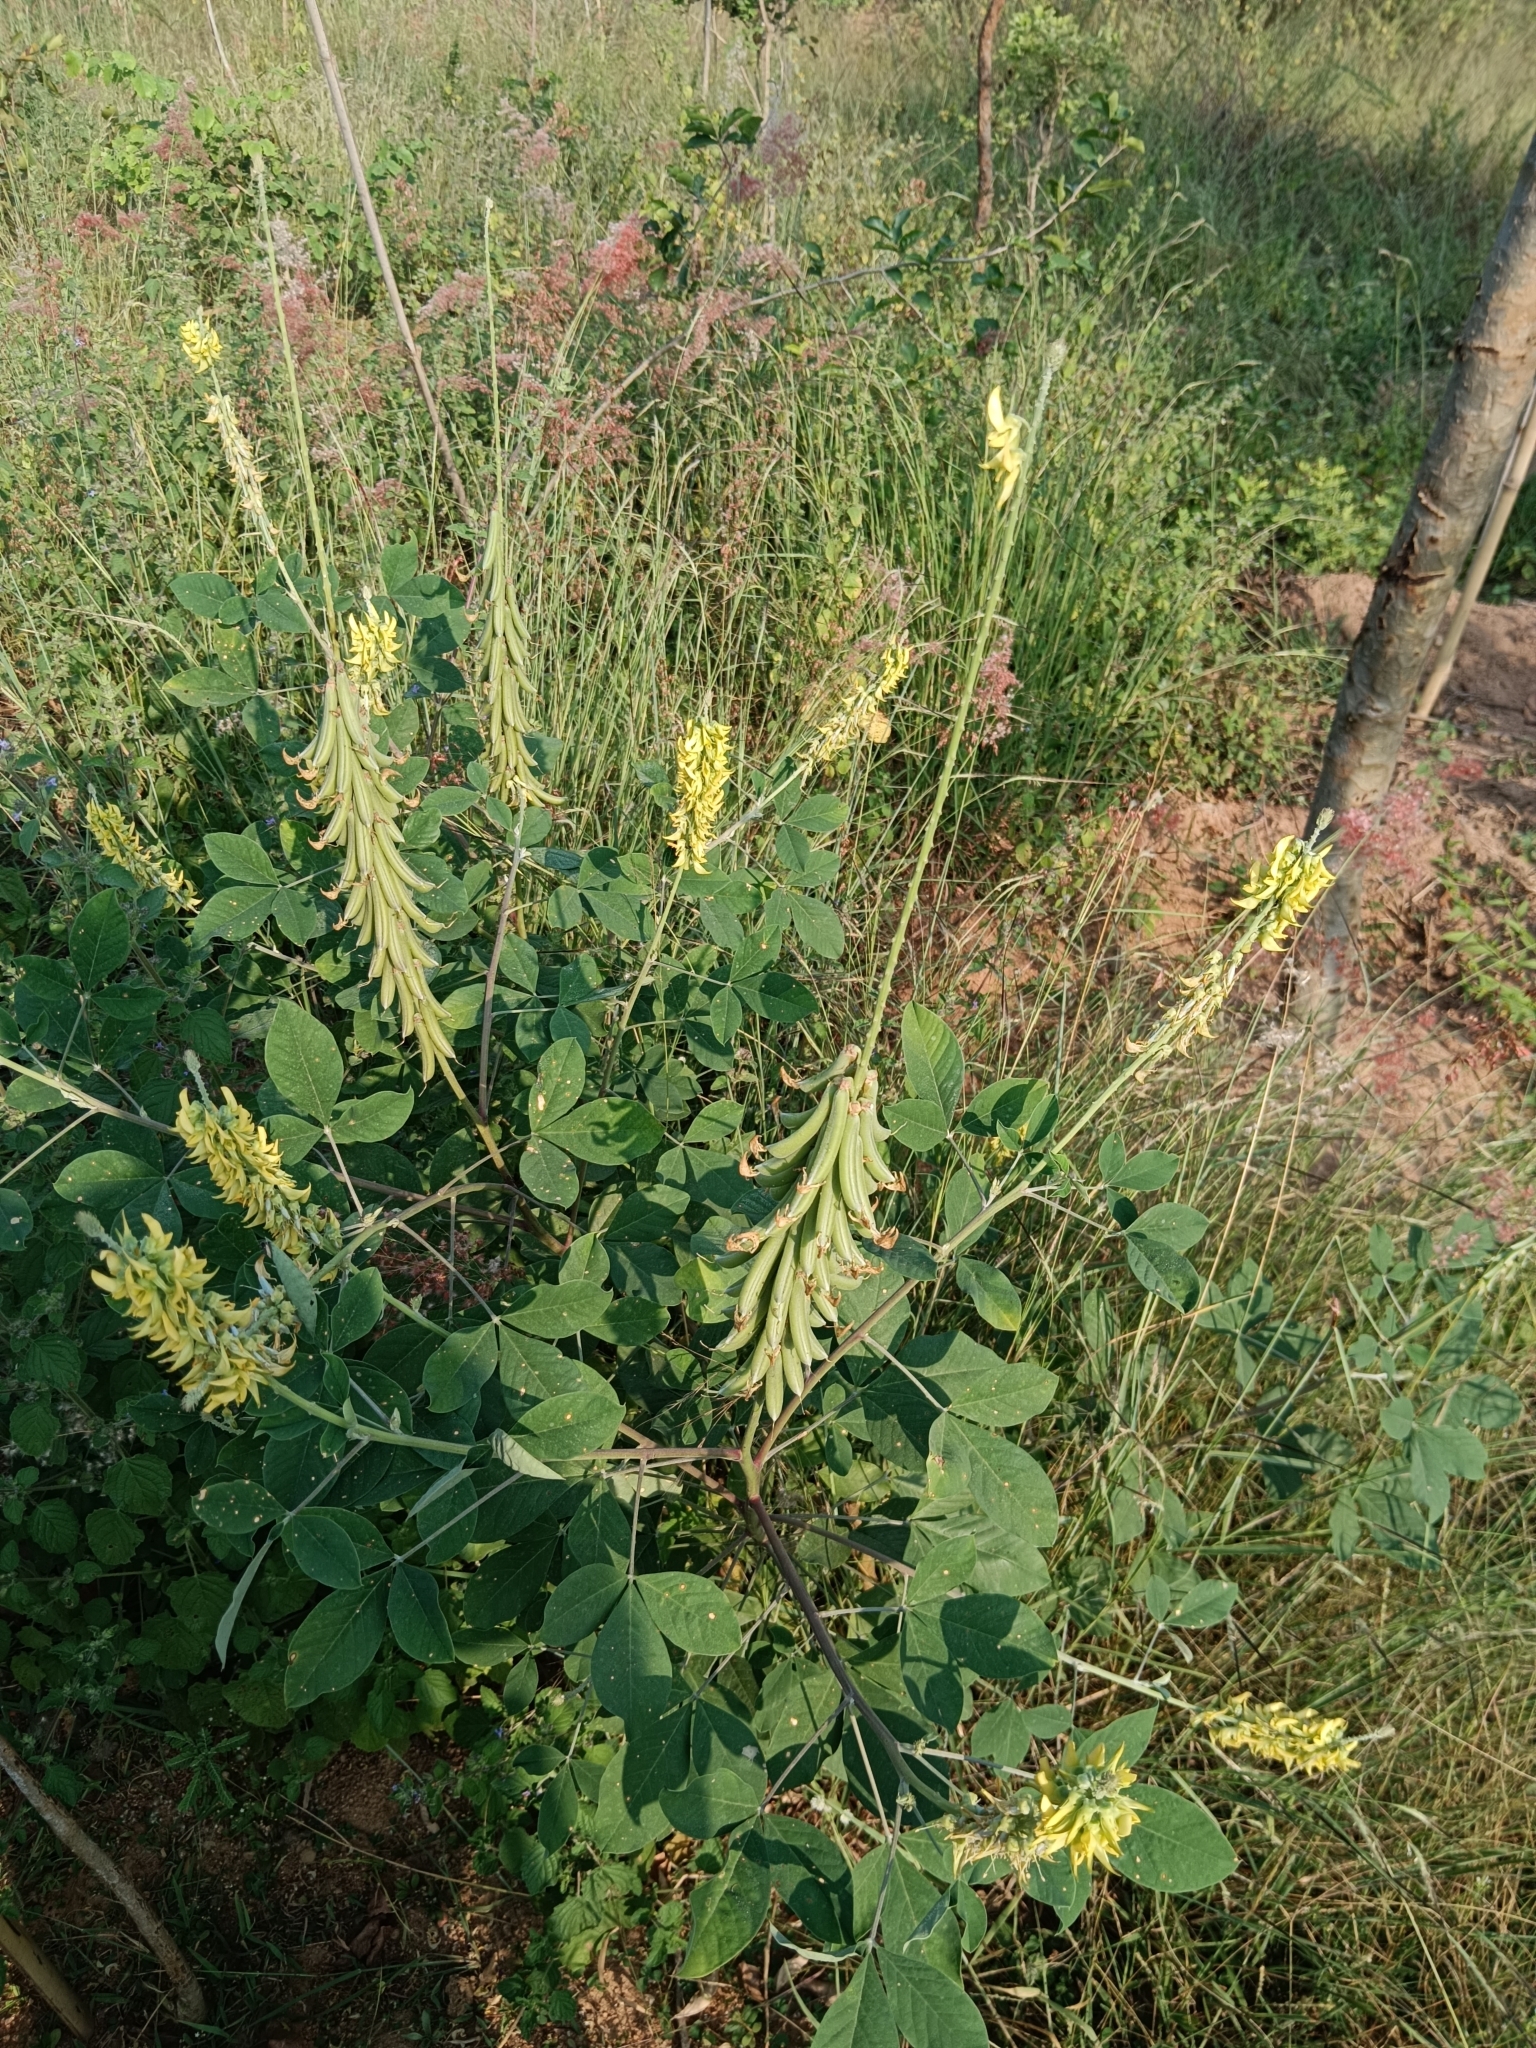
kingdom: Plantae
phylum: Tracheophyta
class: Magnoliopsida
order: Fabales
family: Fabaceae
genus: Crotalaria
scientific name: Crotalaria pallida
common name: Smooth rattlebox
